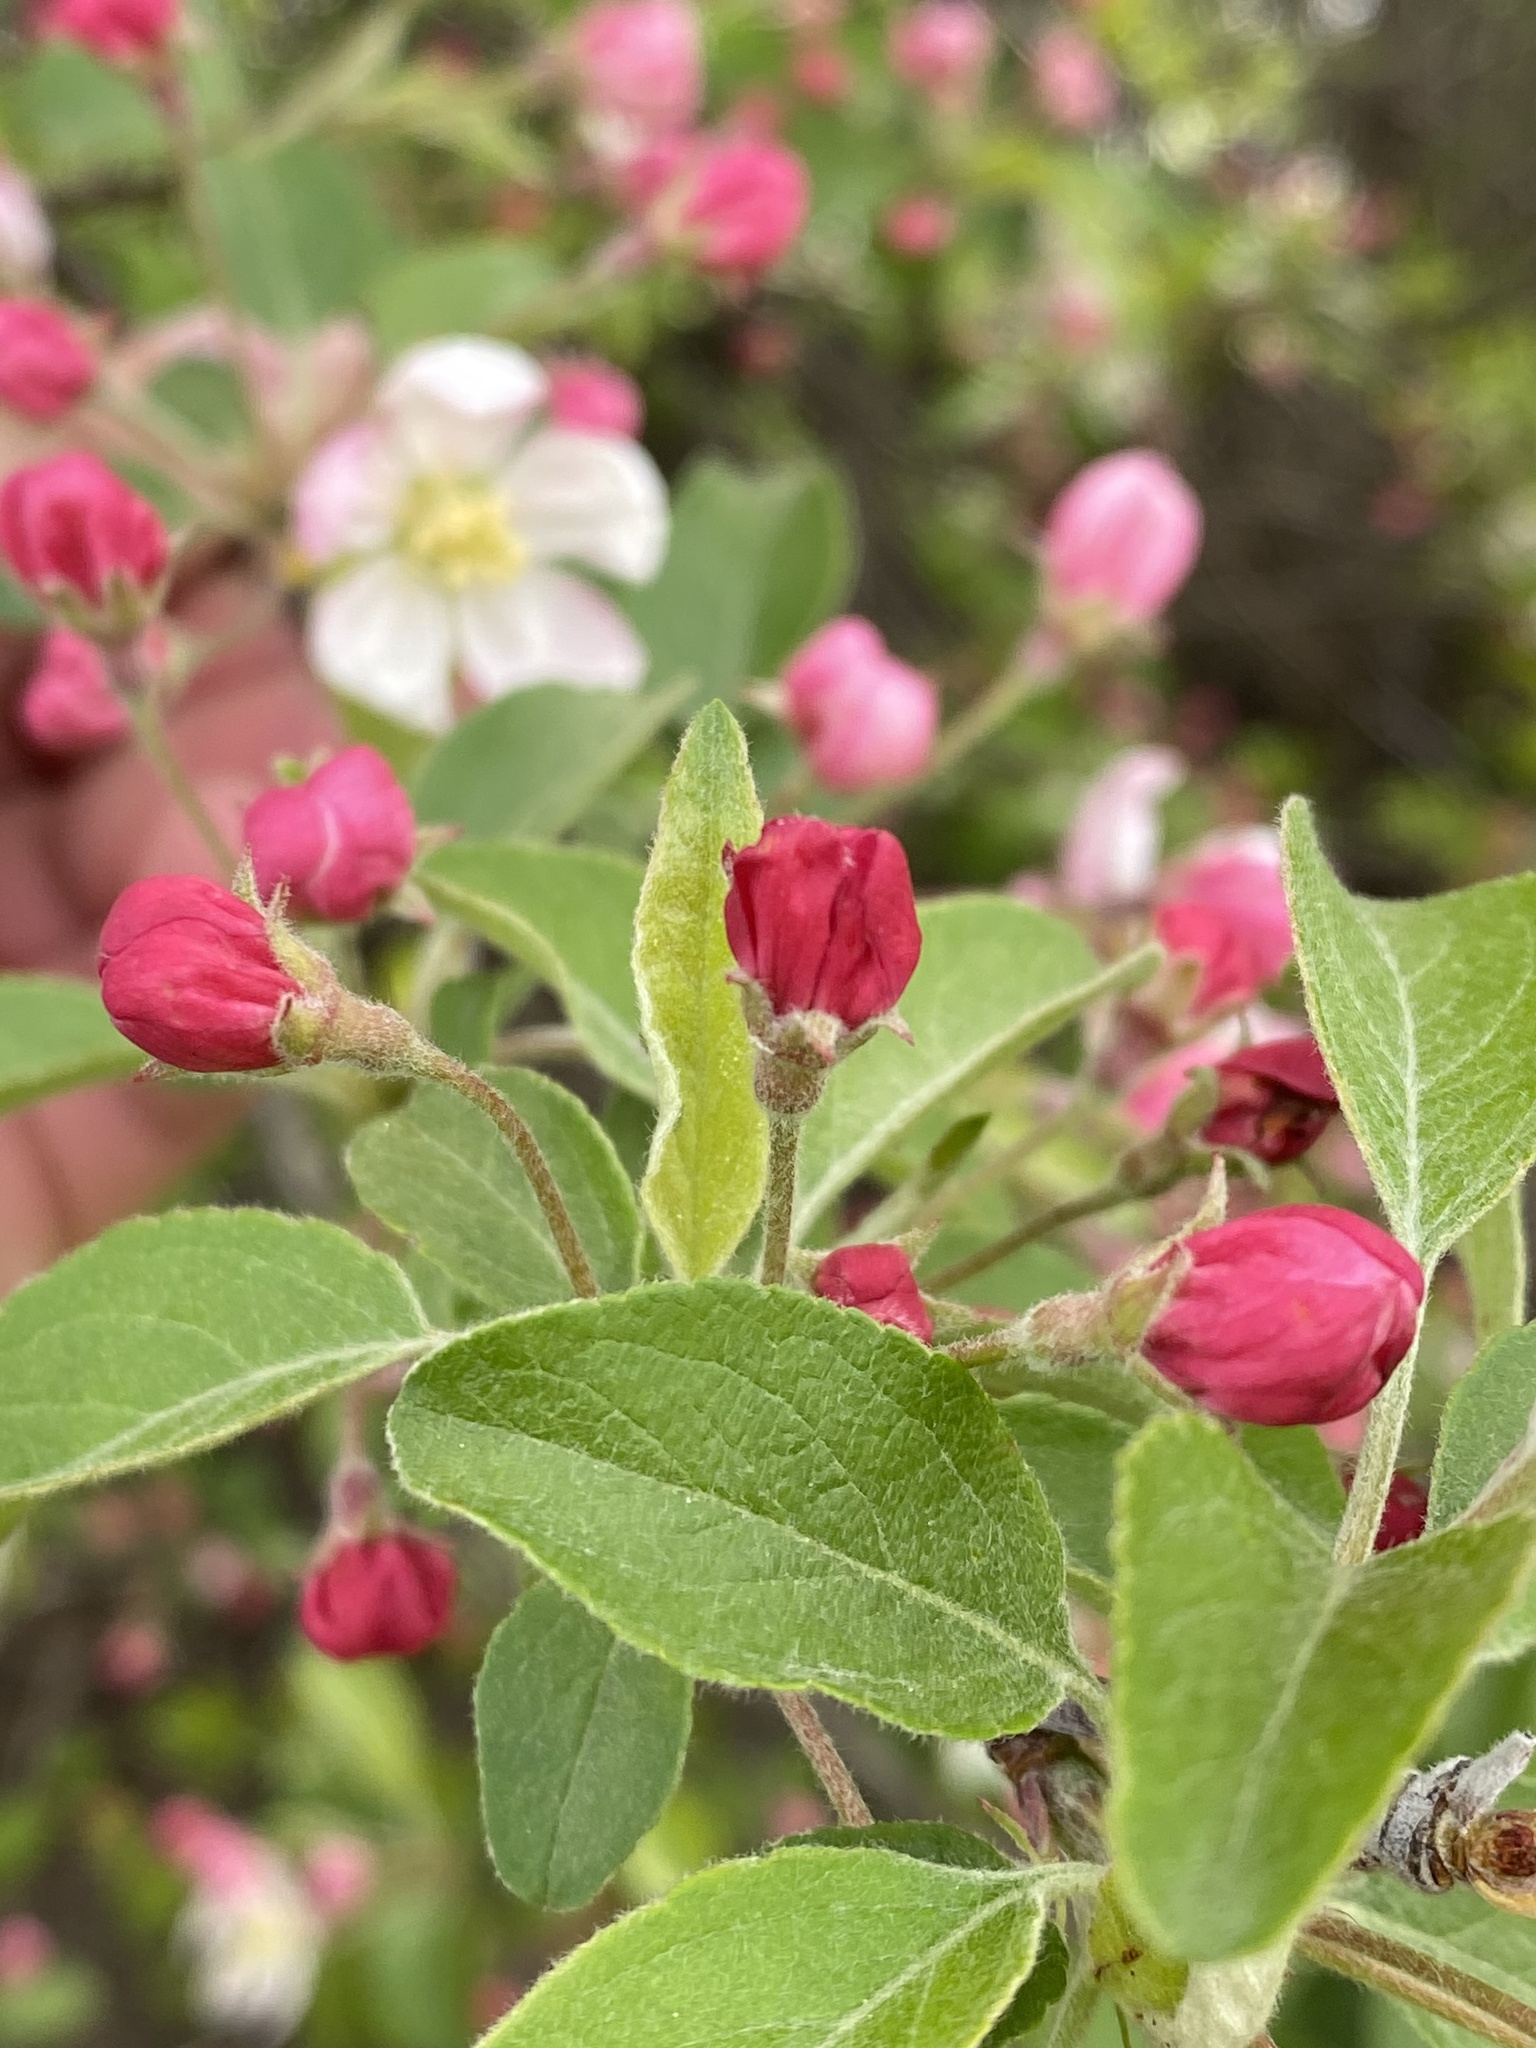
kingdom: Plantae
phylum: Tracheophyta
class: Magnoliopsida
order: Rosales
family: Rosaceae
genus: Malus
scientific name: Malus domestica
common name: Apple
